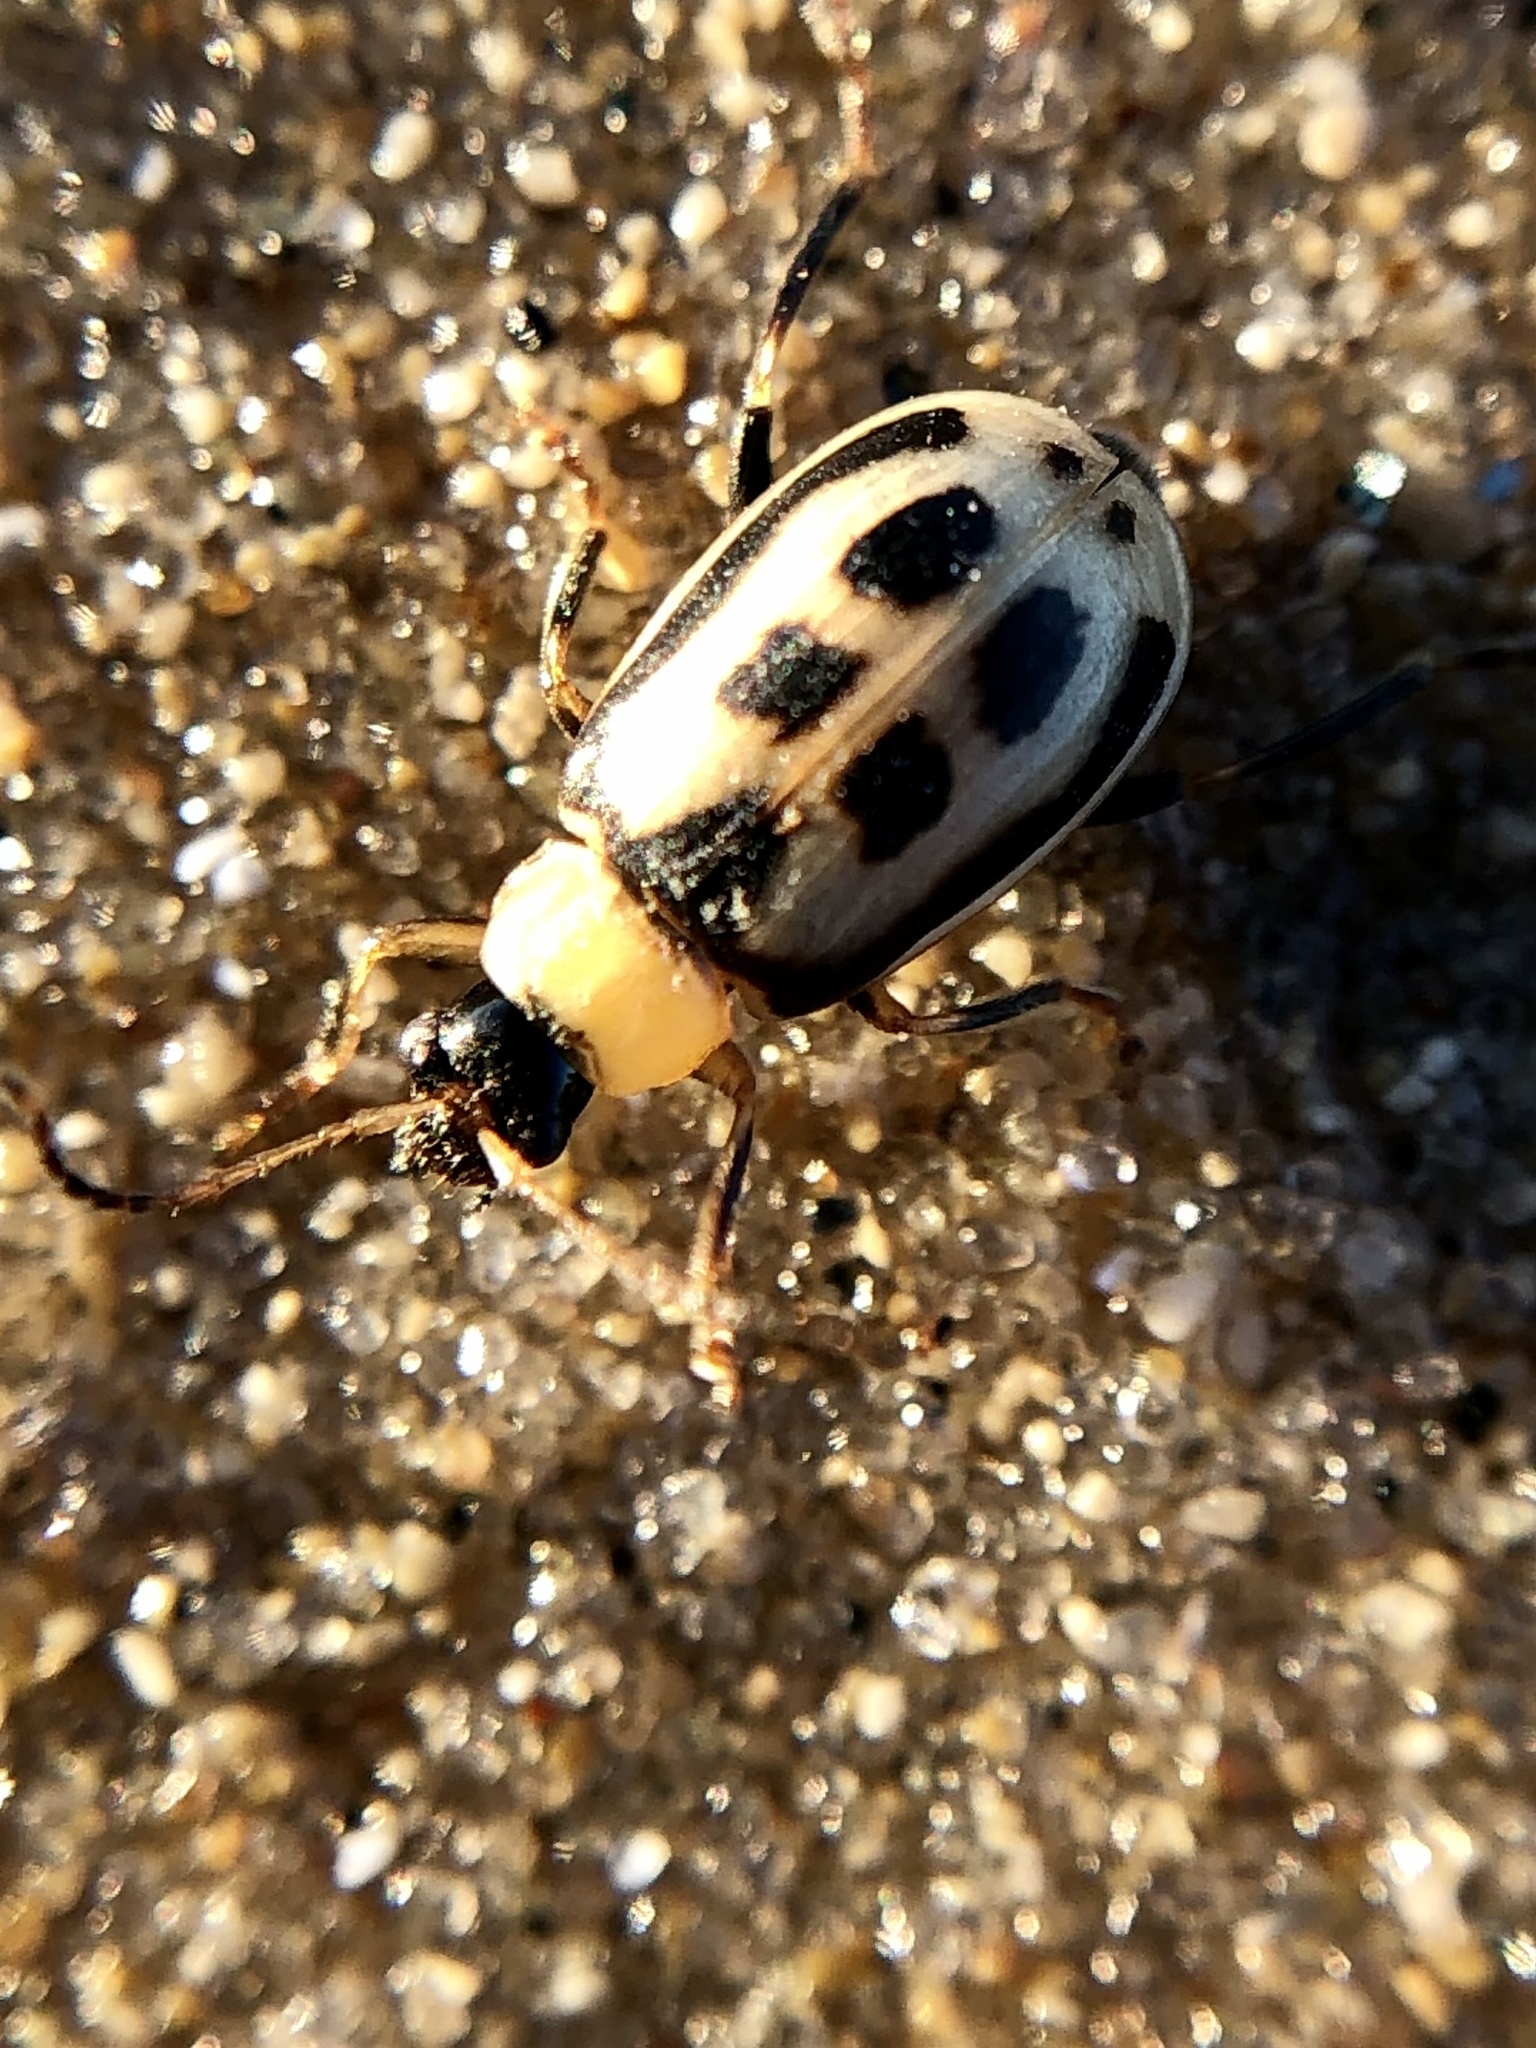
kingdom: Animalia
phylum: Arthropoda
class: Insecta
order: Coleoptera
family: Chrysomelidae
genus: Cerotoma
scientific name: Cerotoma trifurcata
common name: Bean leaf beetle
